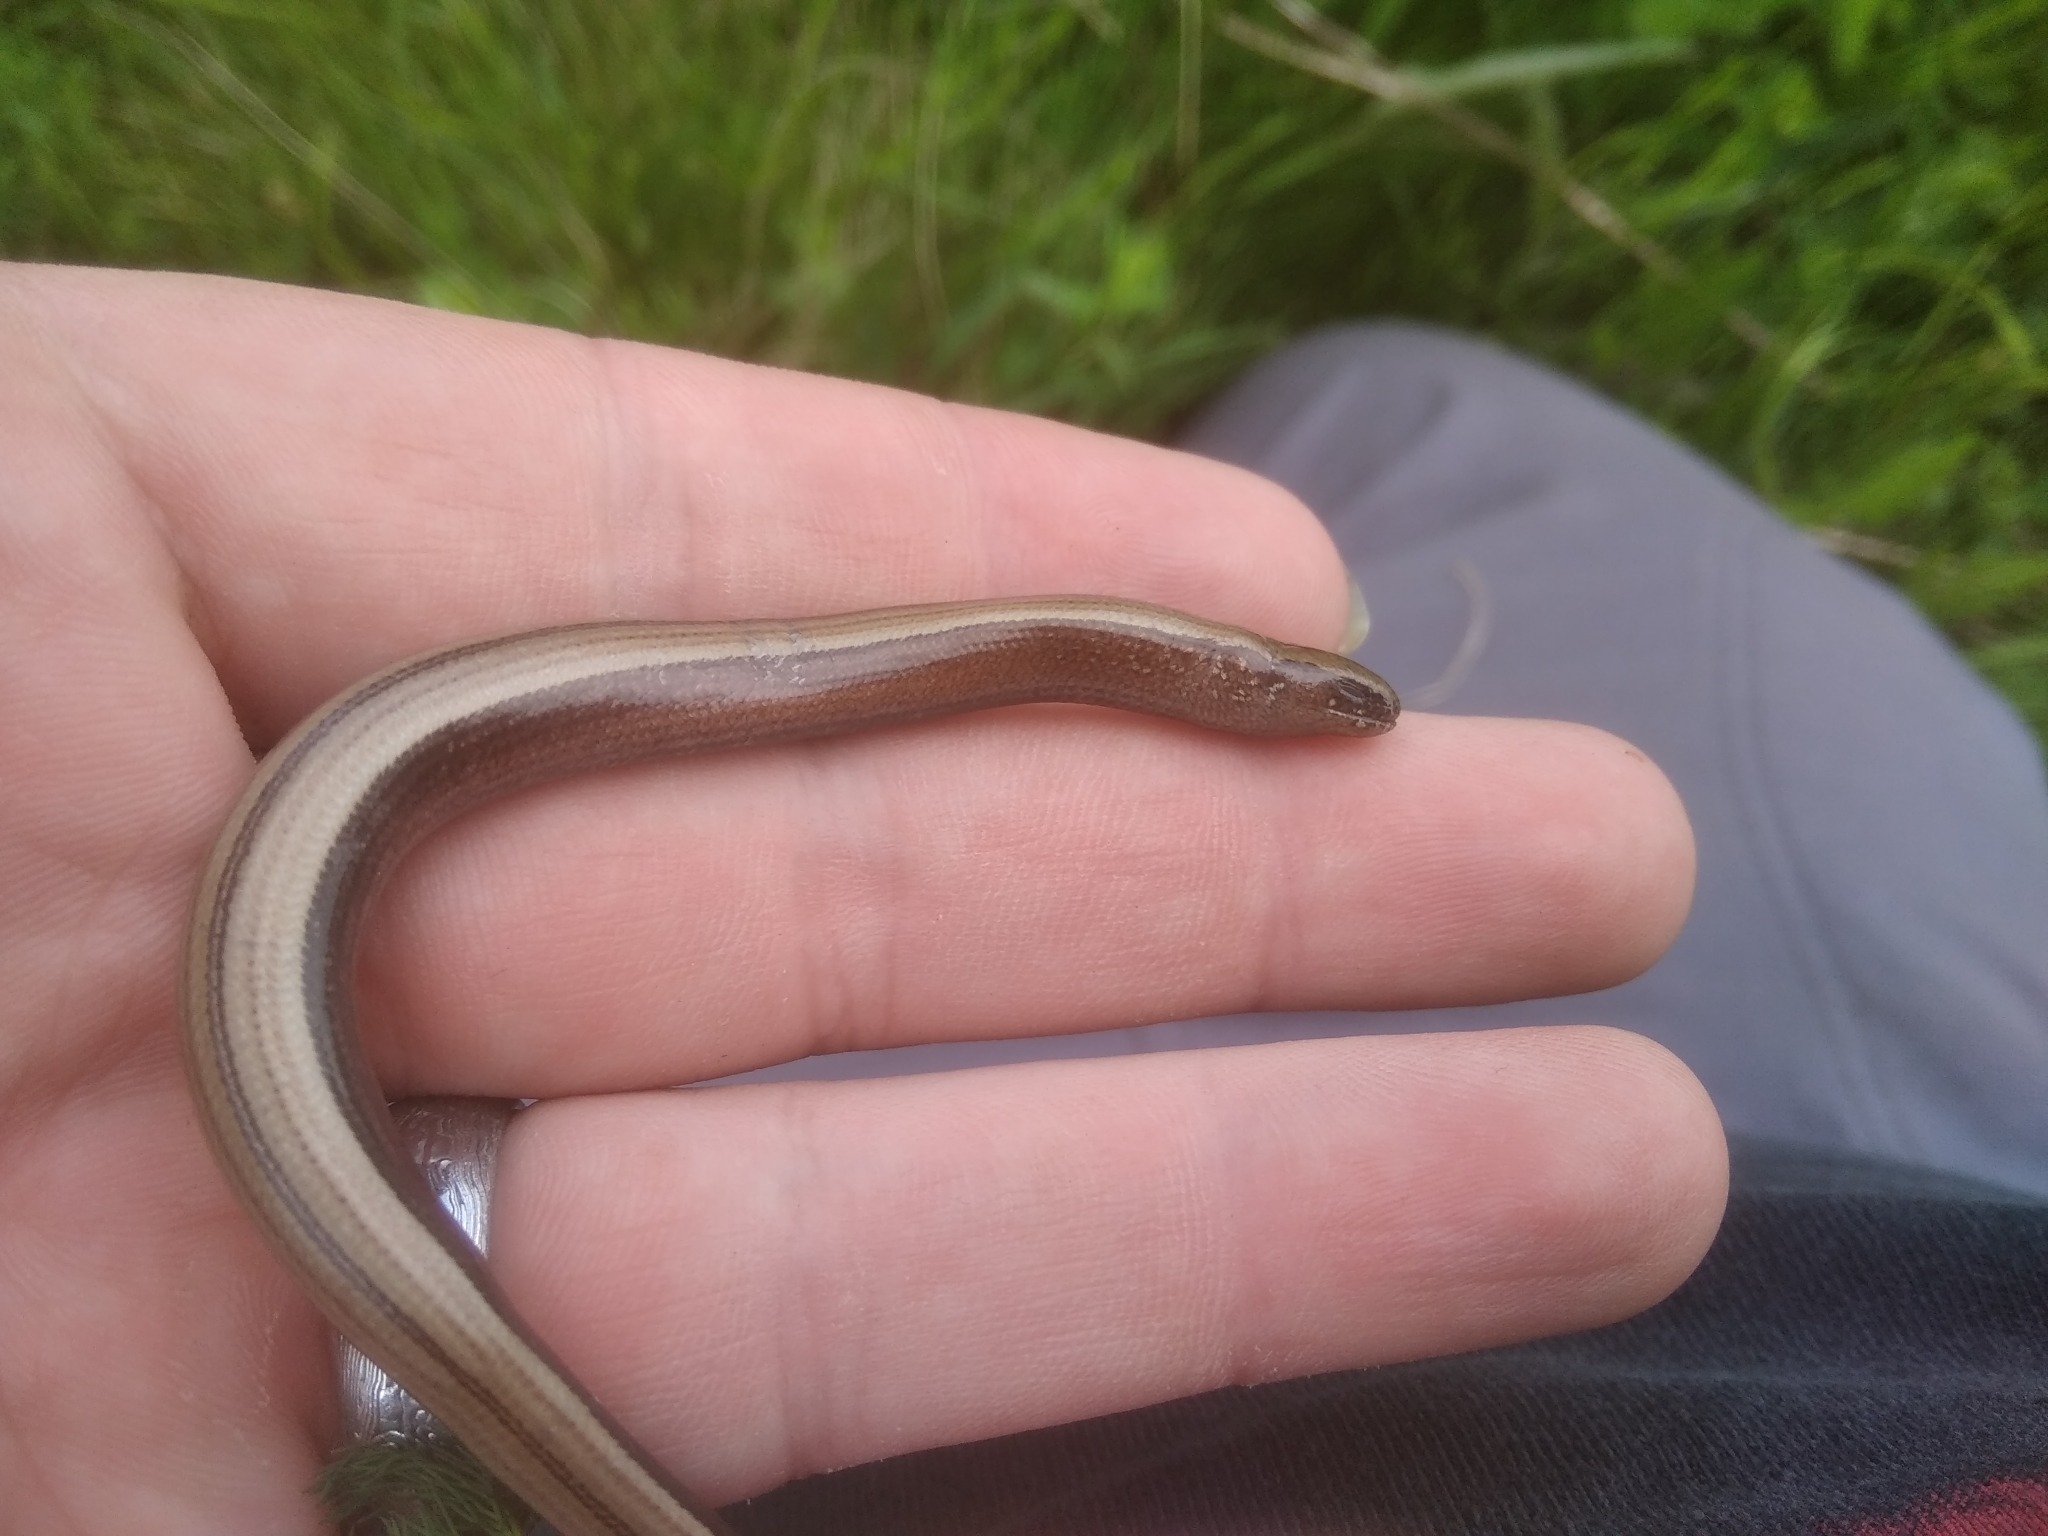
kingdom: Animalia
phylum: Chordata
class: Squamata
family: Anguidae
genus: Anguis
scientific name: Anguis fragilis
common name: Slow worm
